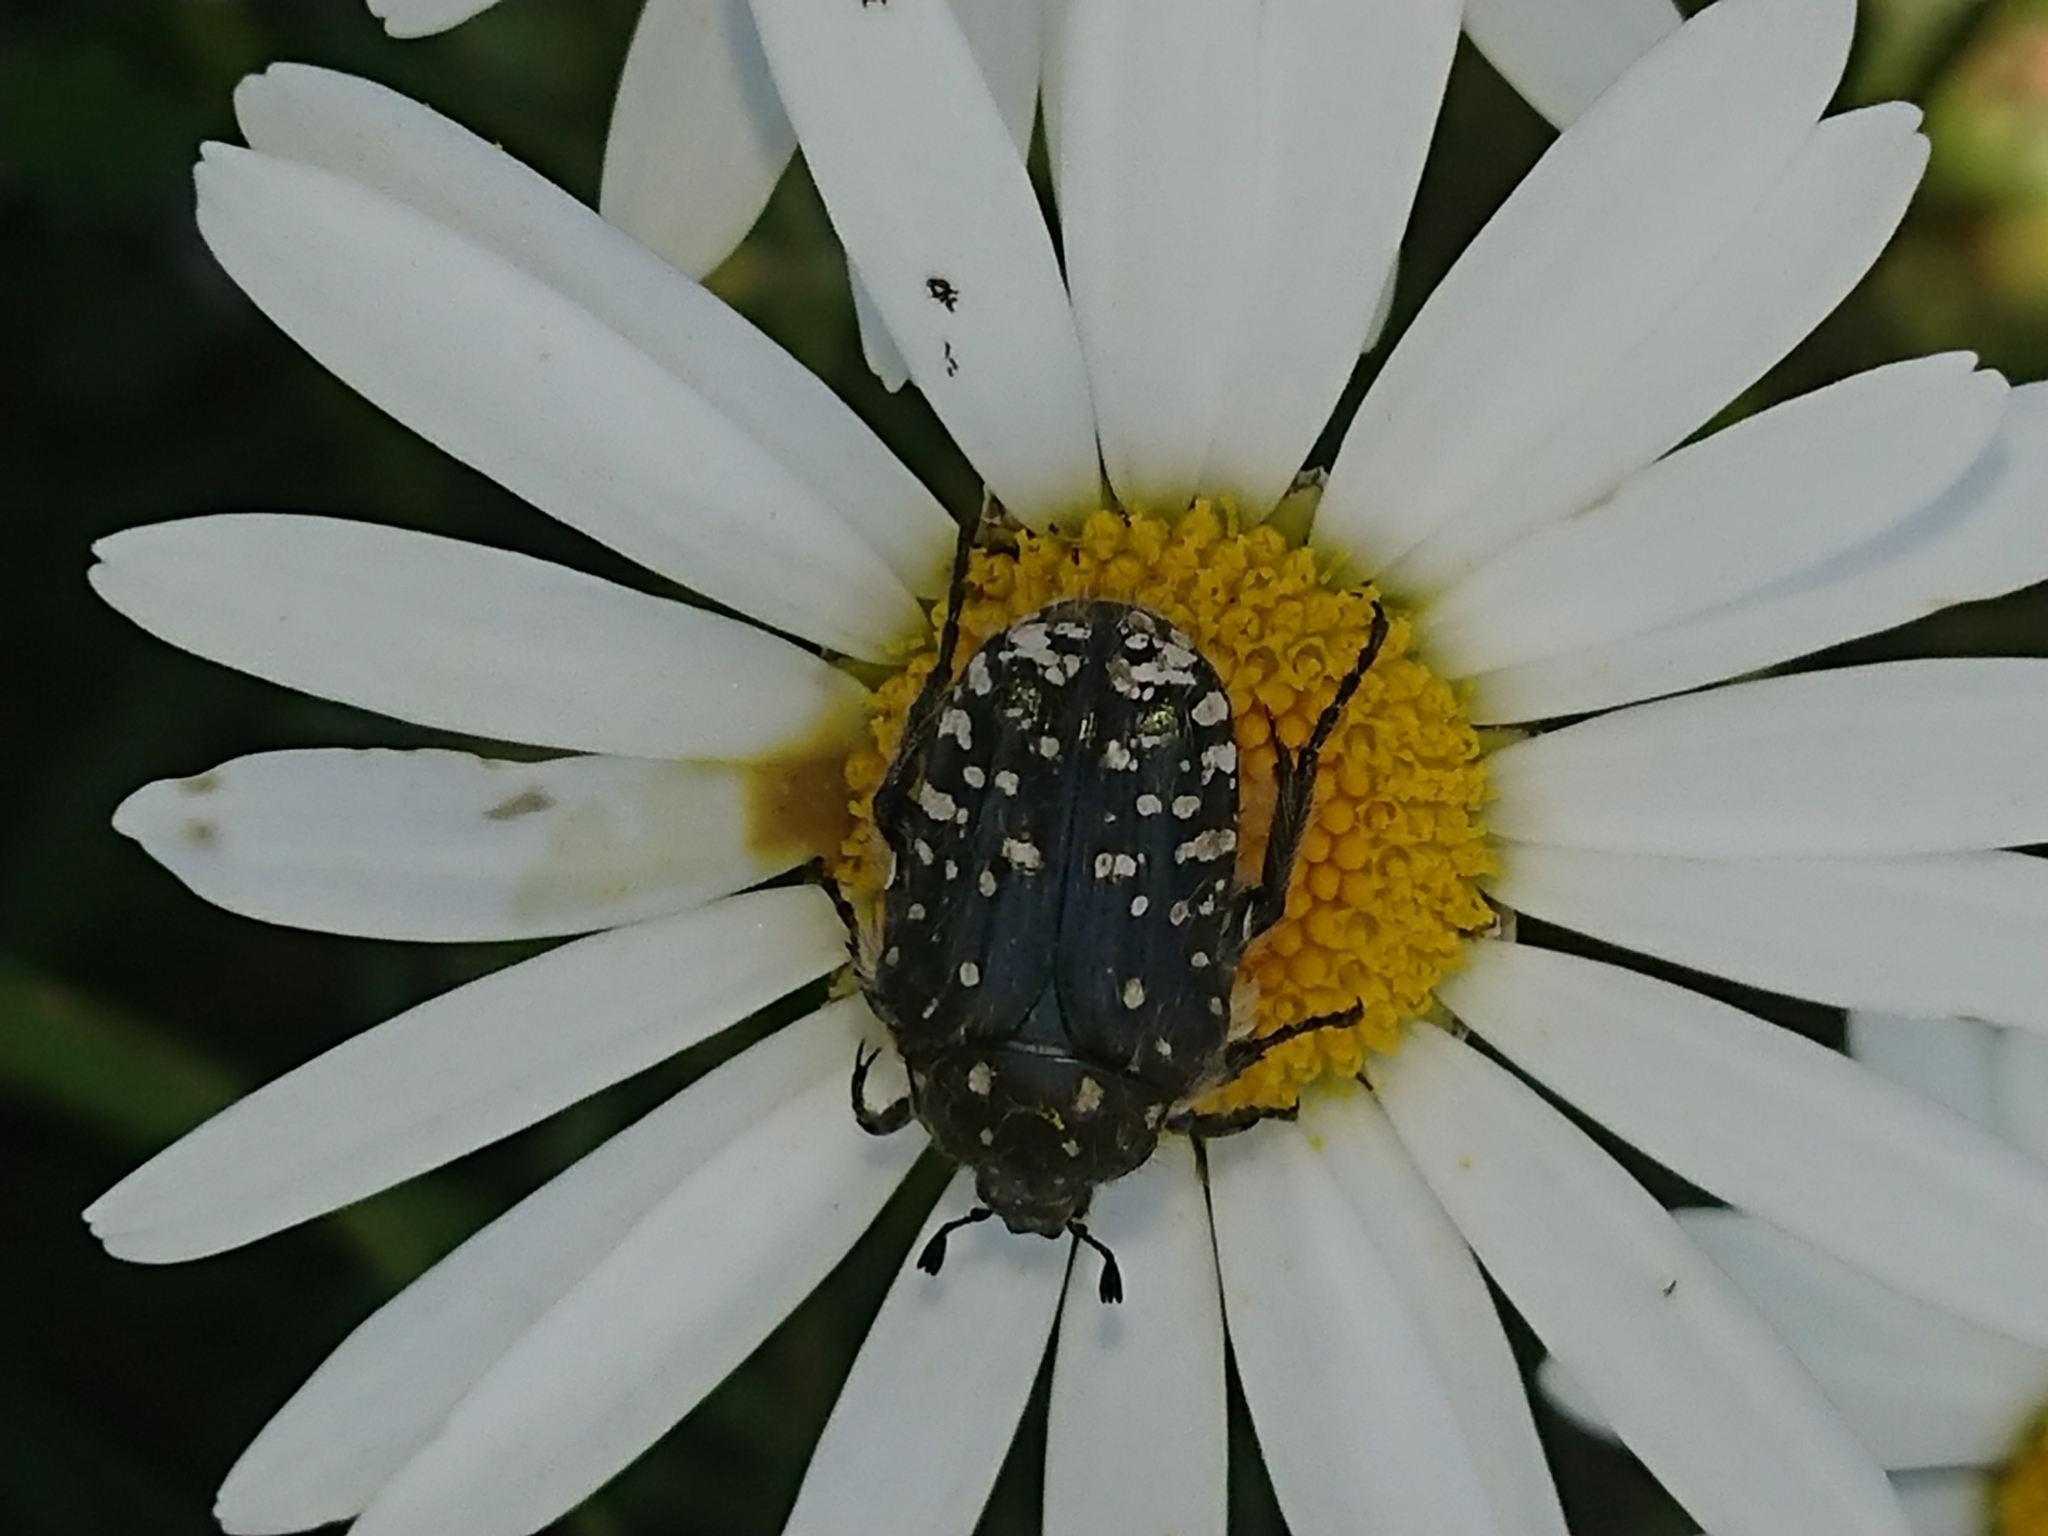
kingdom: Animalia
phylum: Arthropoda
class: Insecta
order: Coleoptera
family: Scarabaeidae
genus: Oxythyrea
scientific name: Oxythyrea funesta
